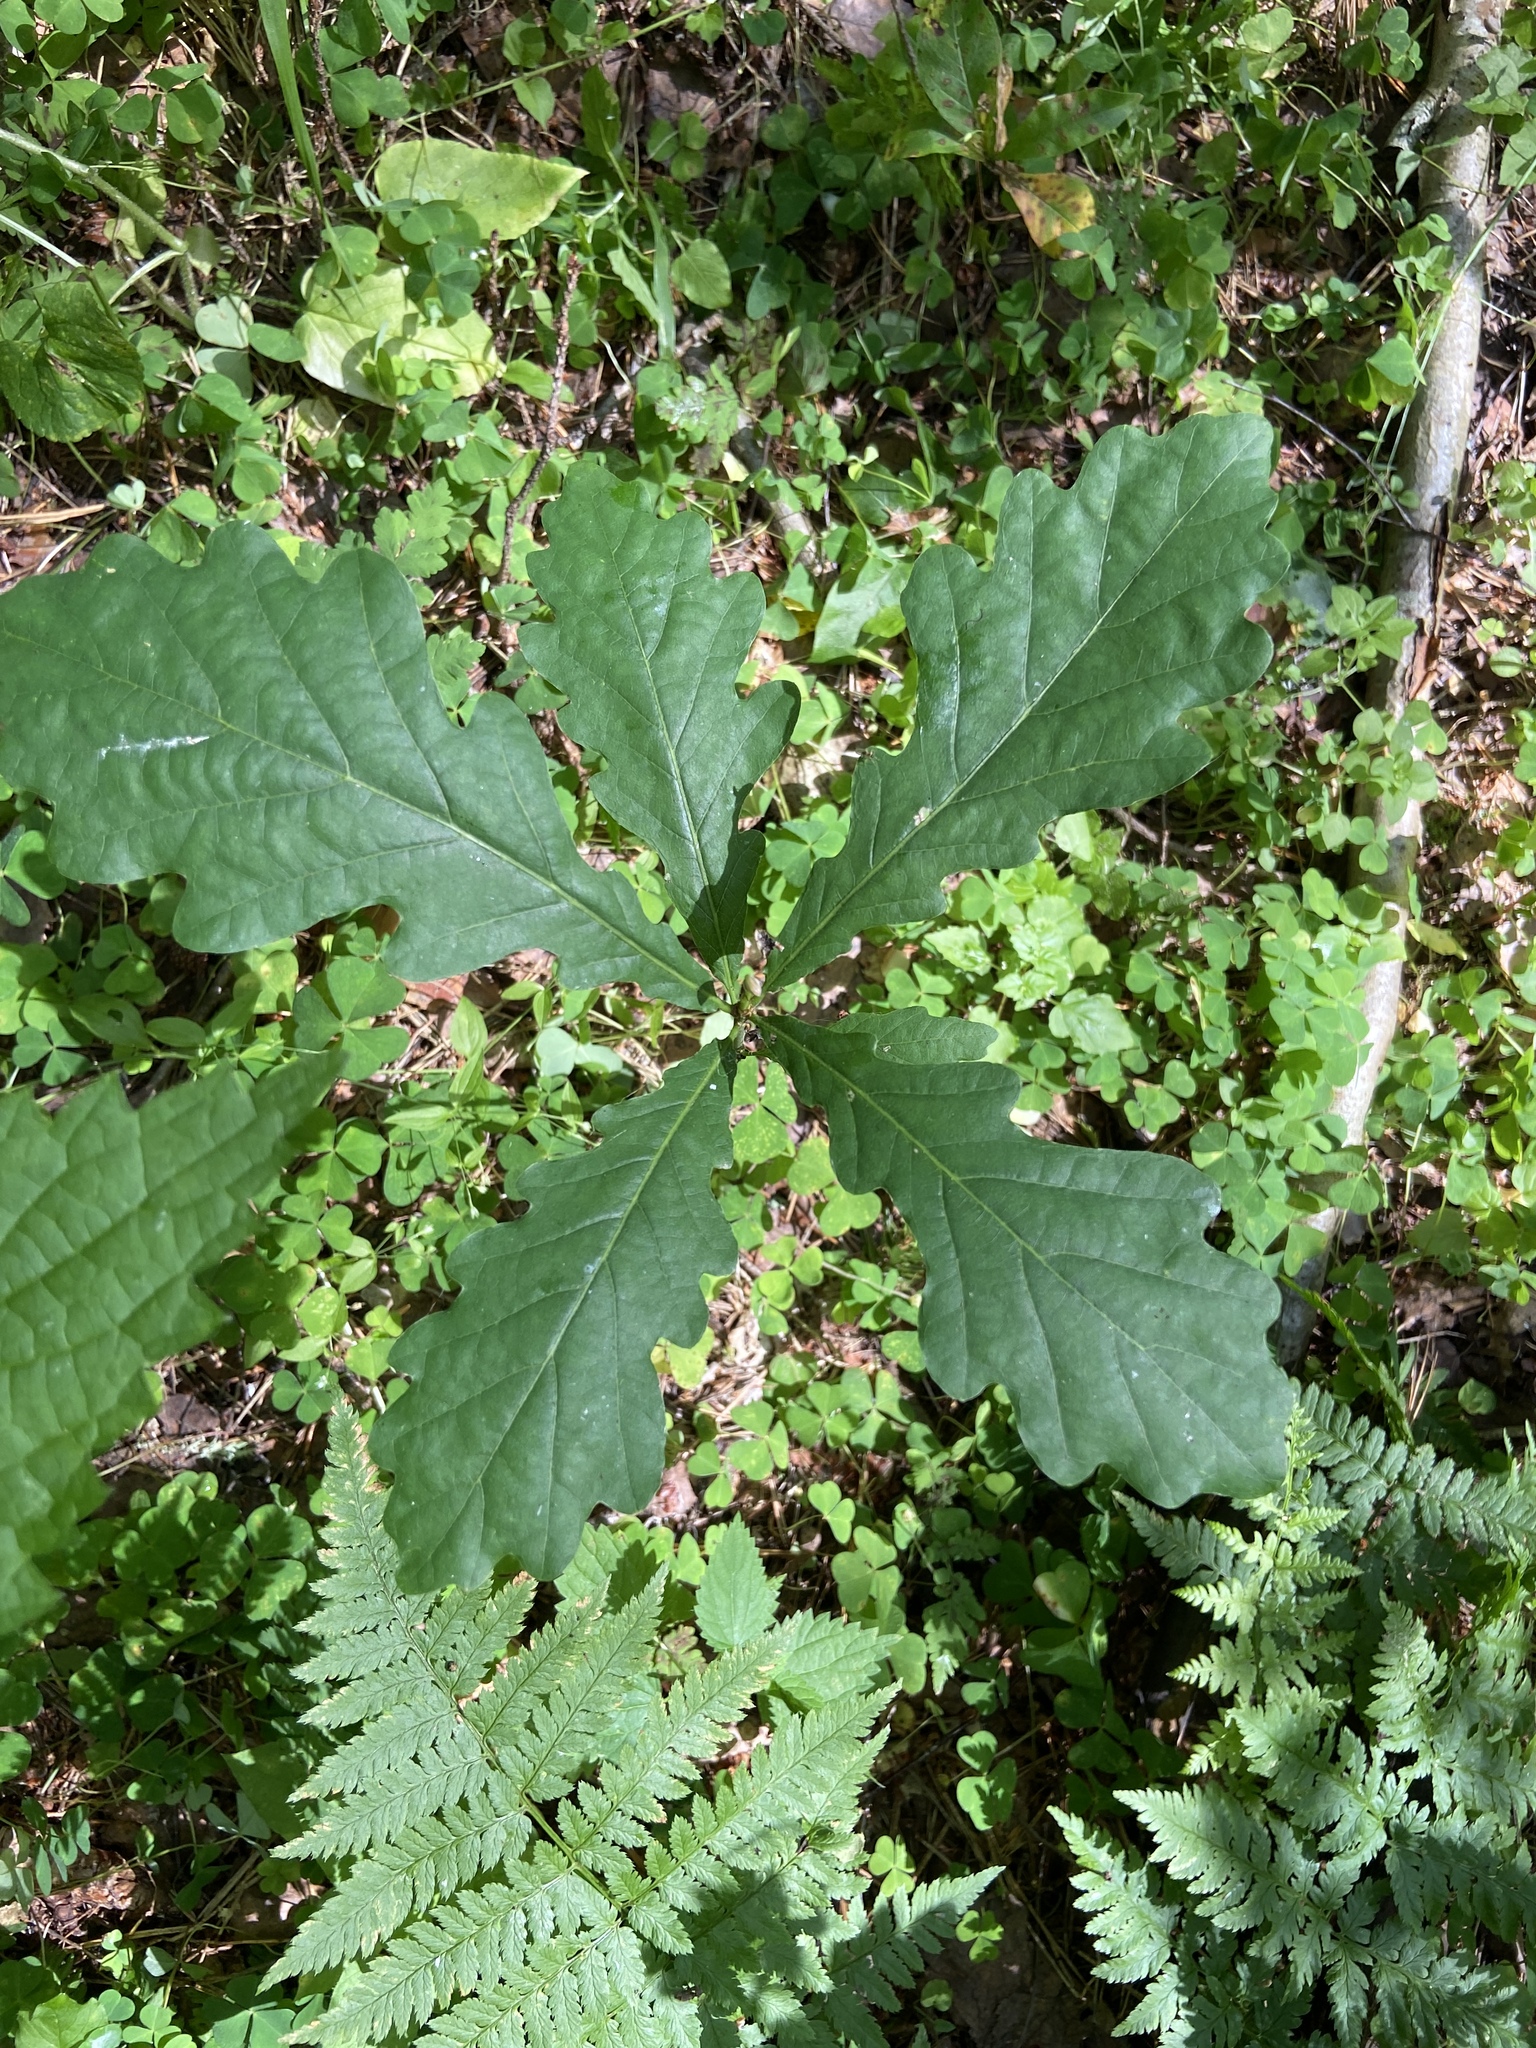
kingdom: Plantae
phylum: Tracheophyta
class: Magnoliopsida
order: Fagales
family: Fagaceae
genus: Quercus
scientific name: Quercus robur
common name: Pedunculate oak
